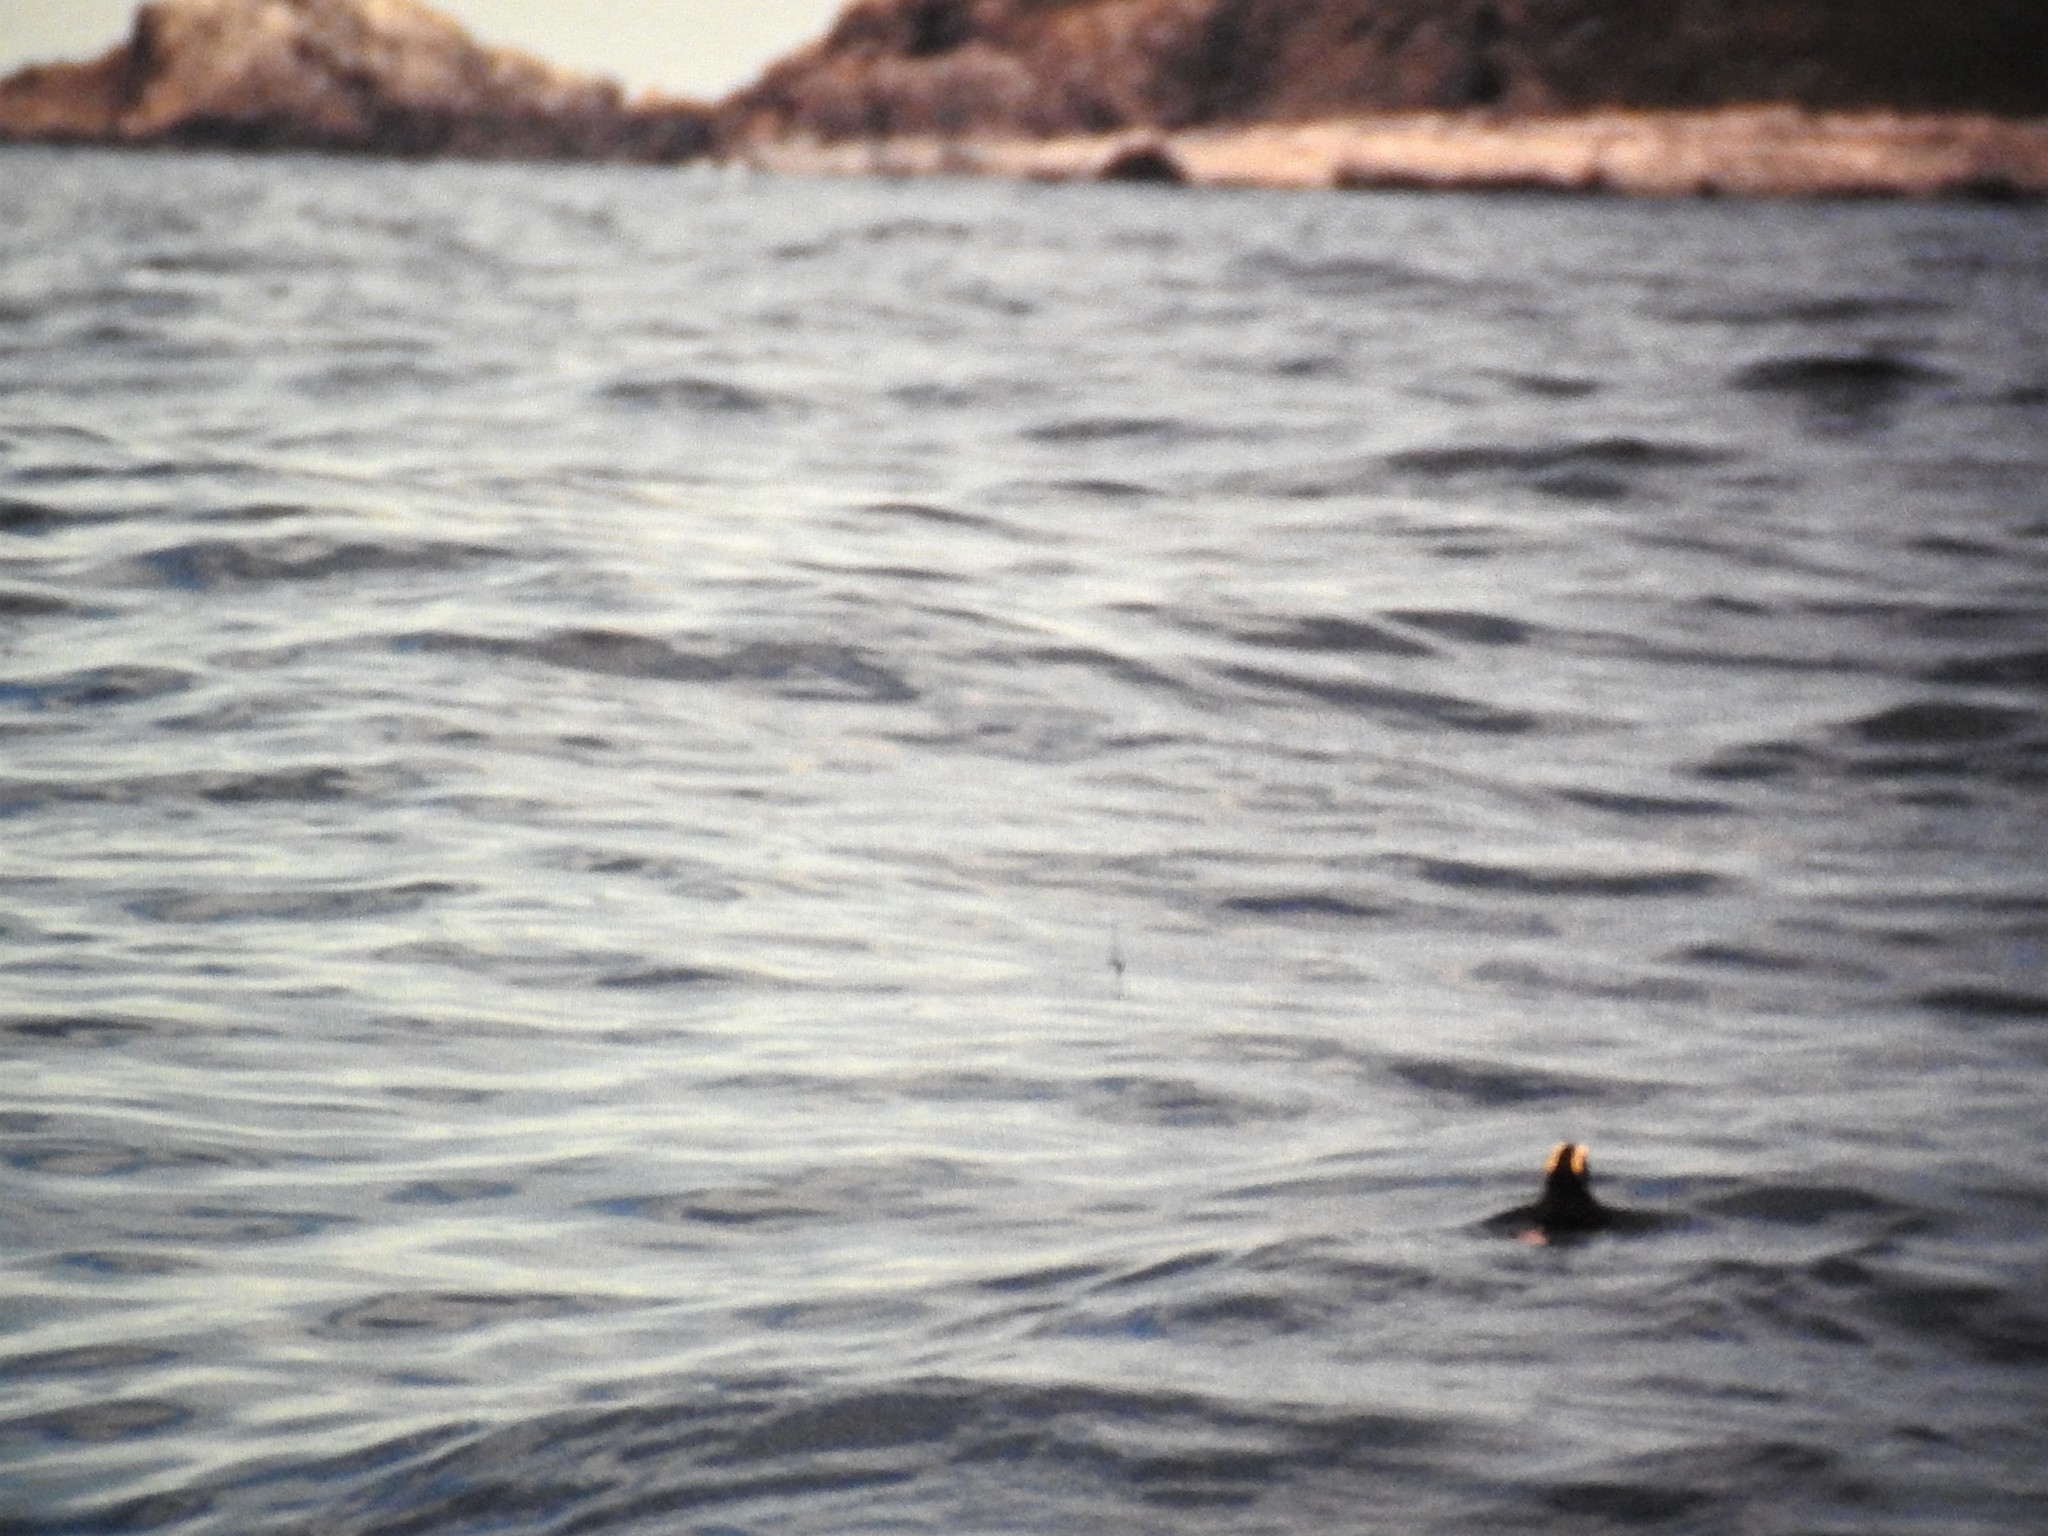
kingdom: Animalia
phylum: Chordata
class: Aves
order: Charadriiformes
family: Alcidae
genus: Fratercula
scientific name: Fratercula cirrhata
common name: Tufted puffin
